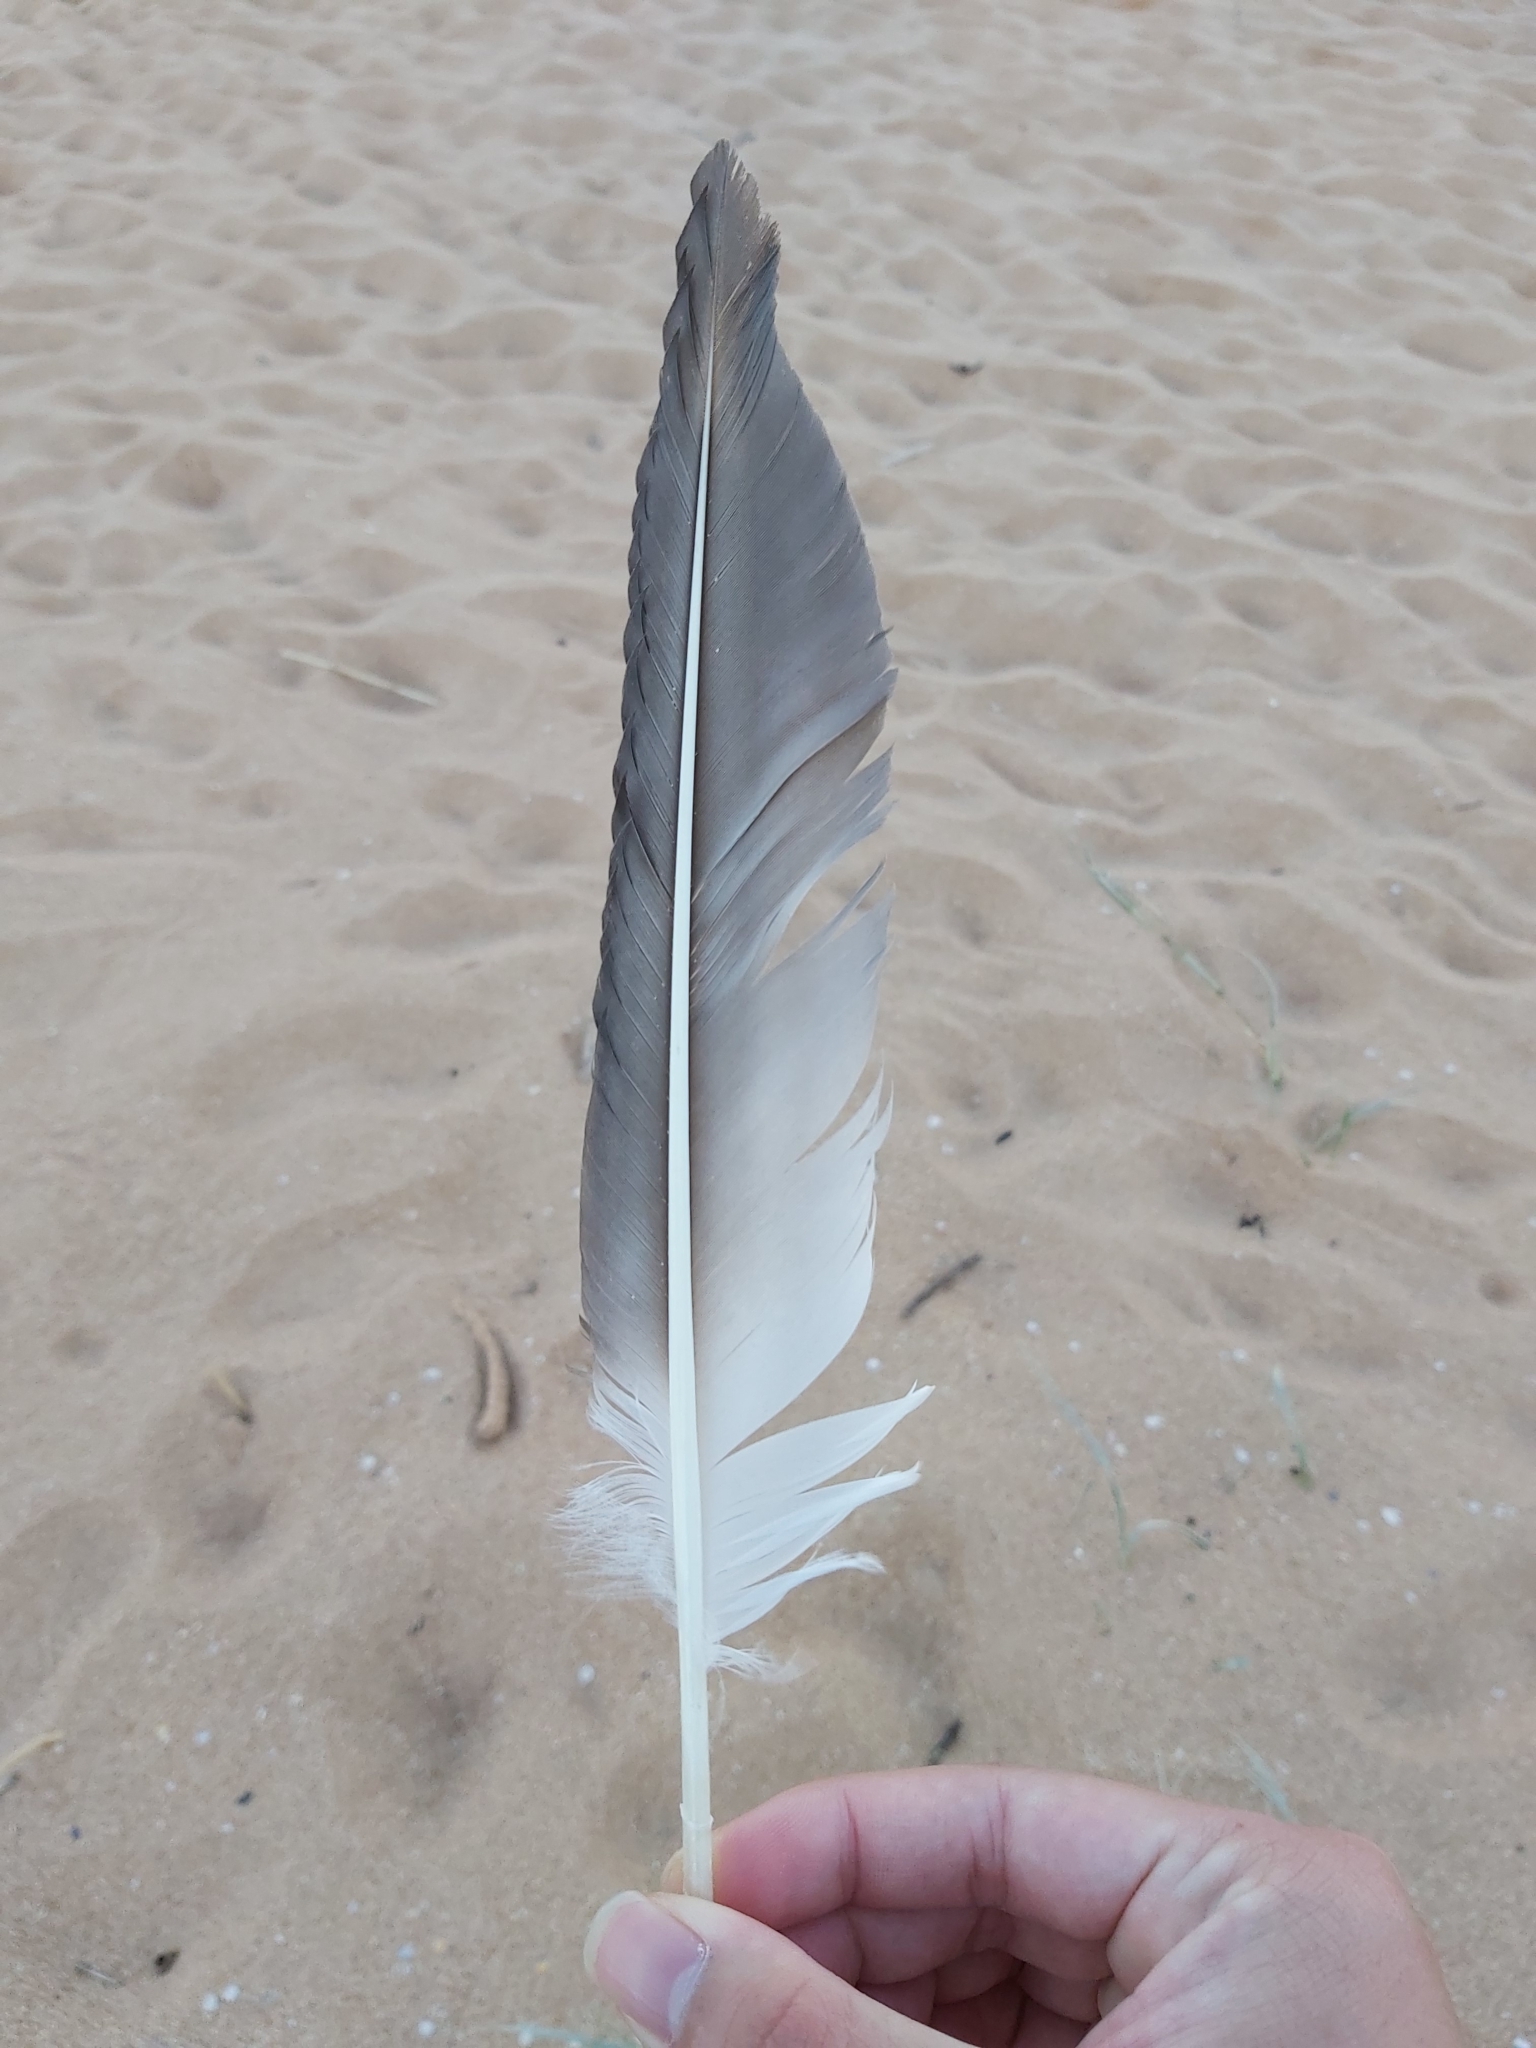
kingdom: Animalia
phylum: Chordata
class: Aves
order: Suliformes
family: Sulidae
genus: Morus
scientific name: Morus serrator
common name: Australasian gannet
